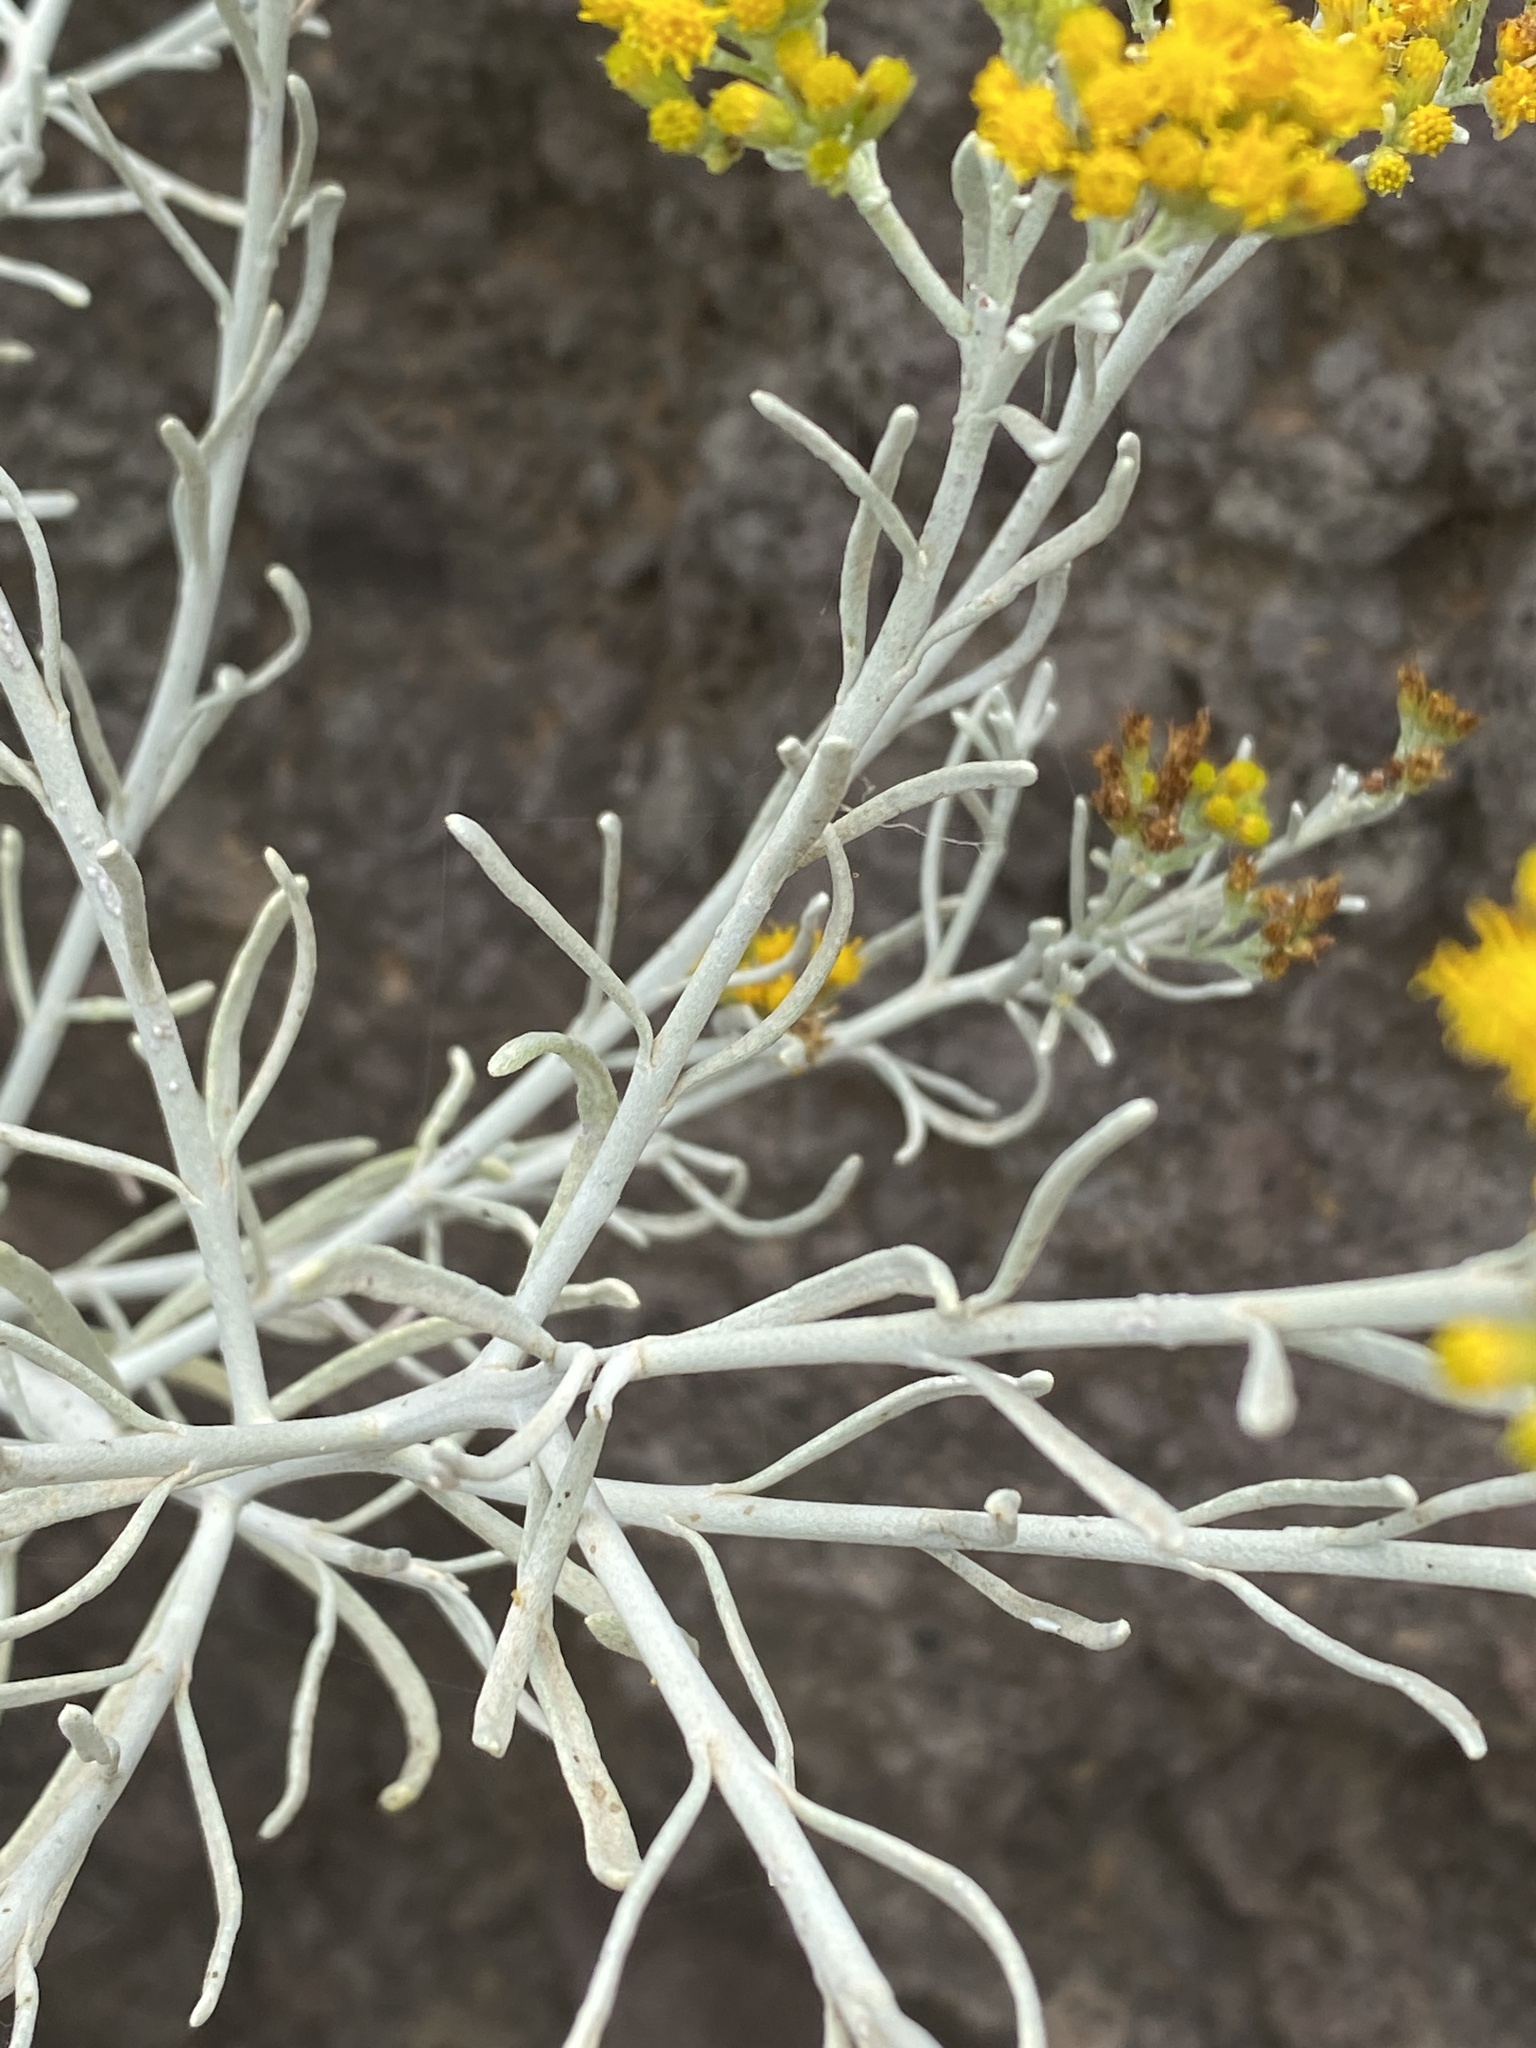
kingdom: Plantae
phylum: Tracheophyta
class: Magnoliopsida
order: Asterales
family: Asteraceae
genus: Schizogyne
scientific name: Schizogyne sericea
